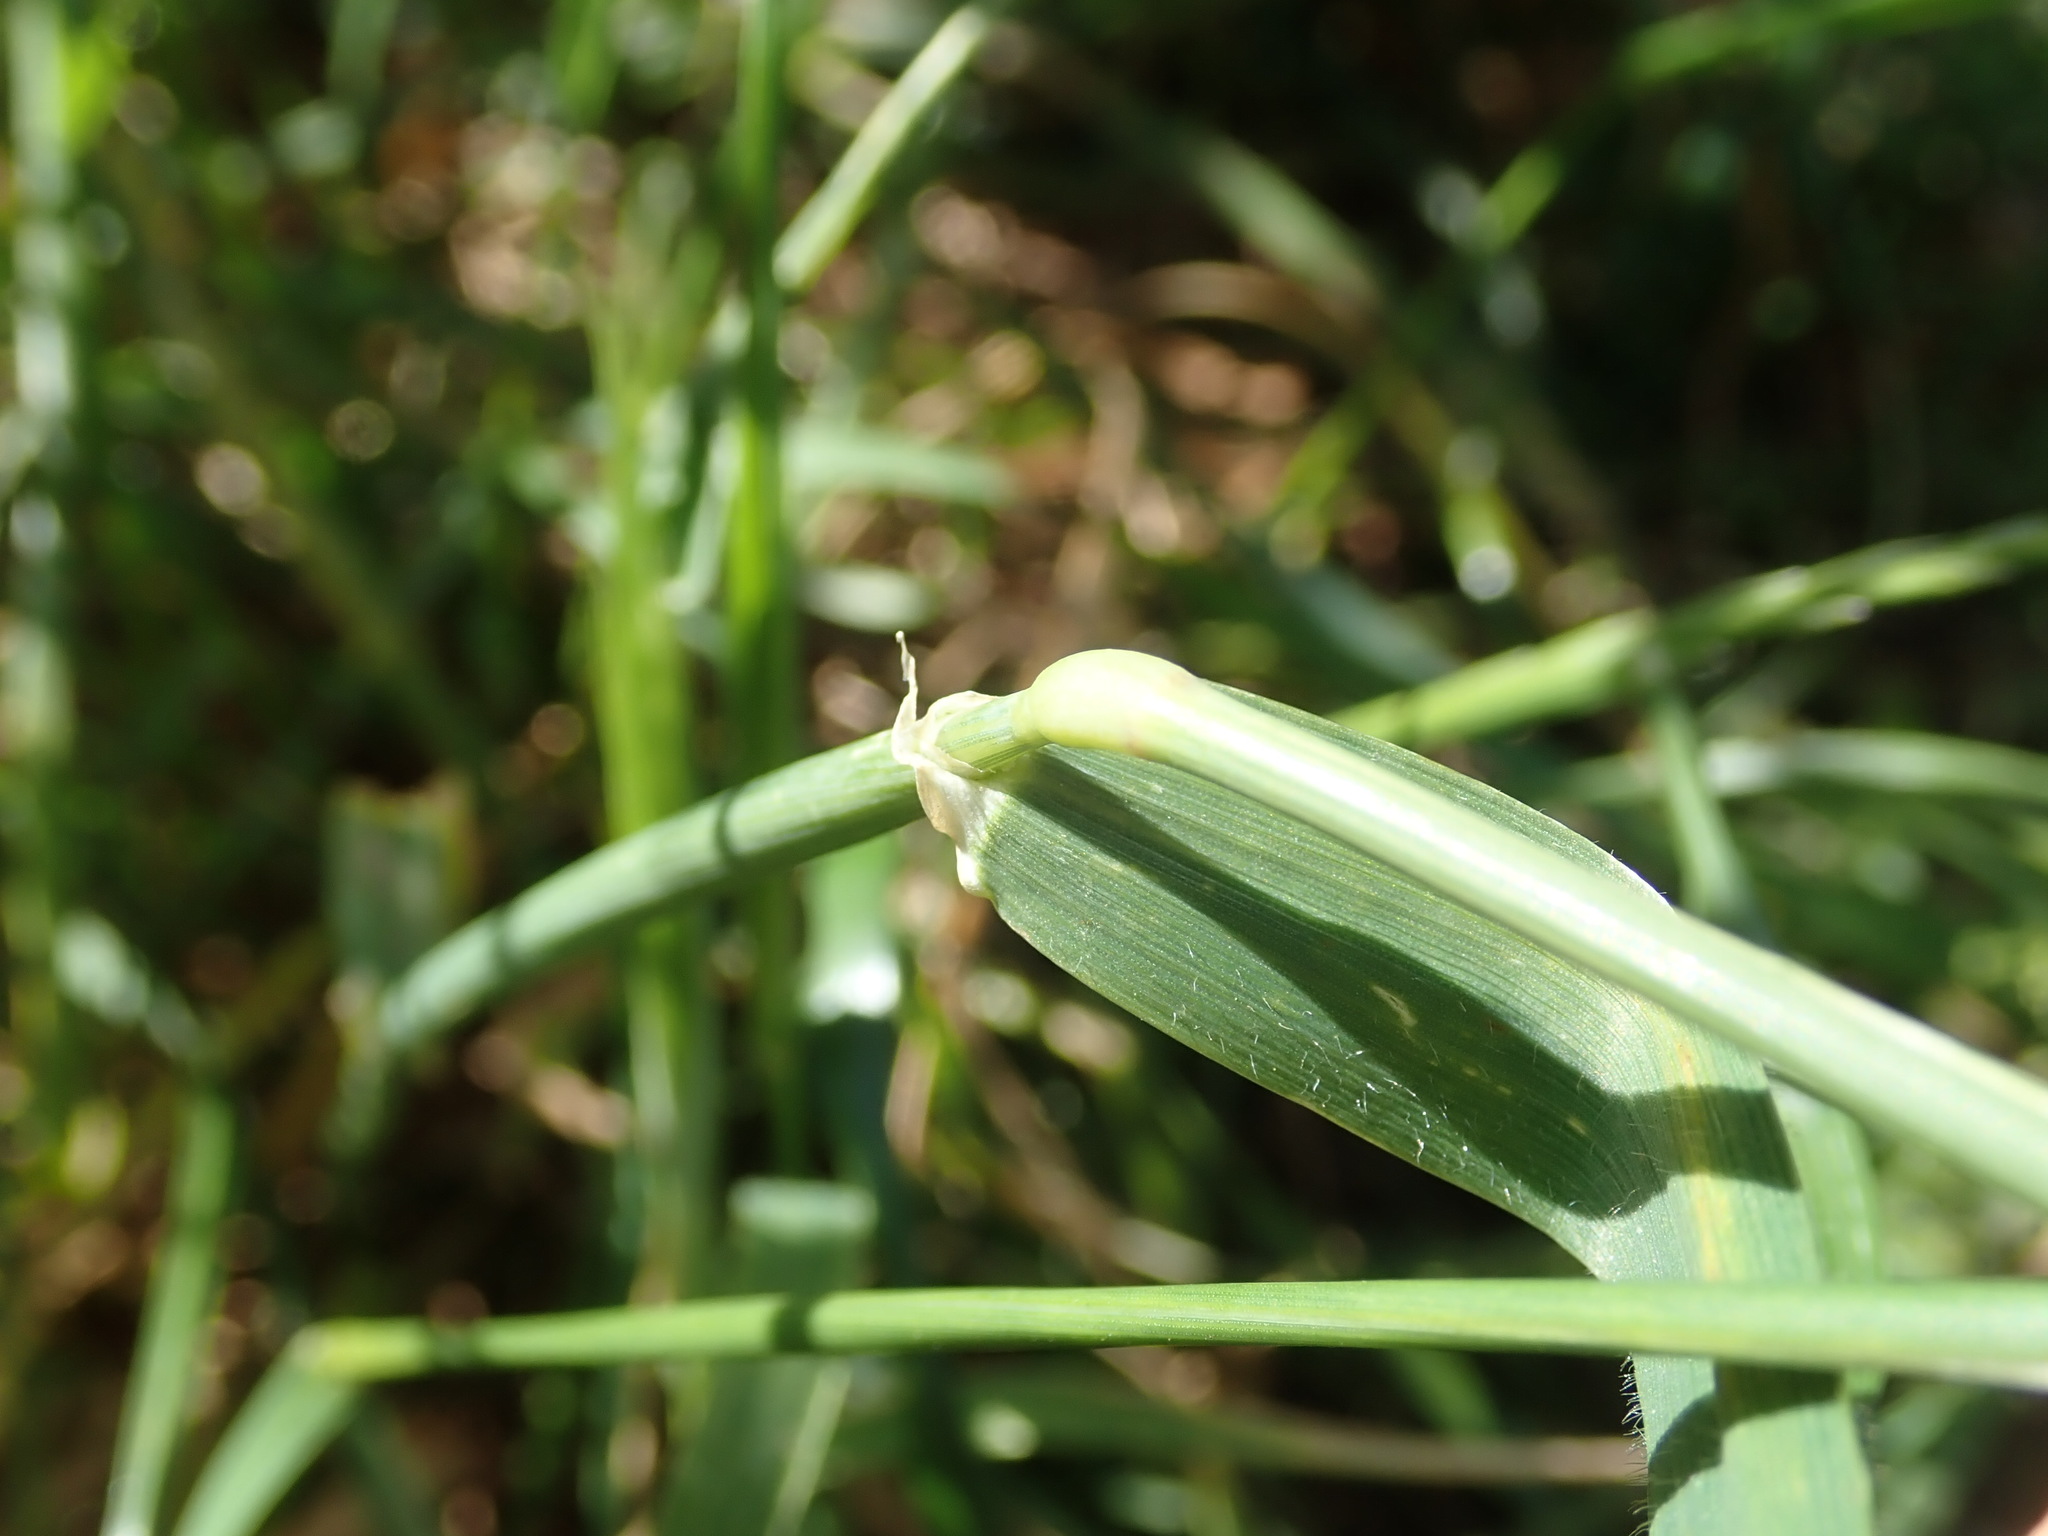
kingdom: Plantae
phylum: Tracheophyta
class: Liliopsida
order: Poales
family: Poaceae
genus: Hordeum
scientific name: Hordeum murinum
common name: Wall barley
